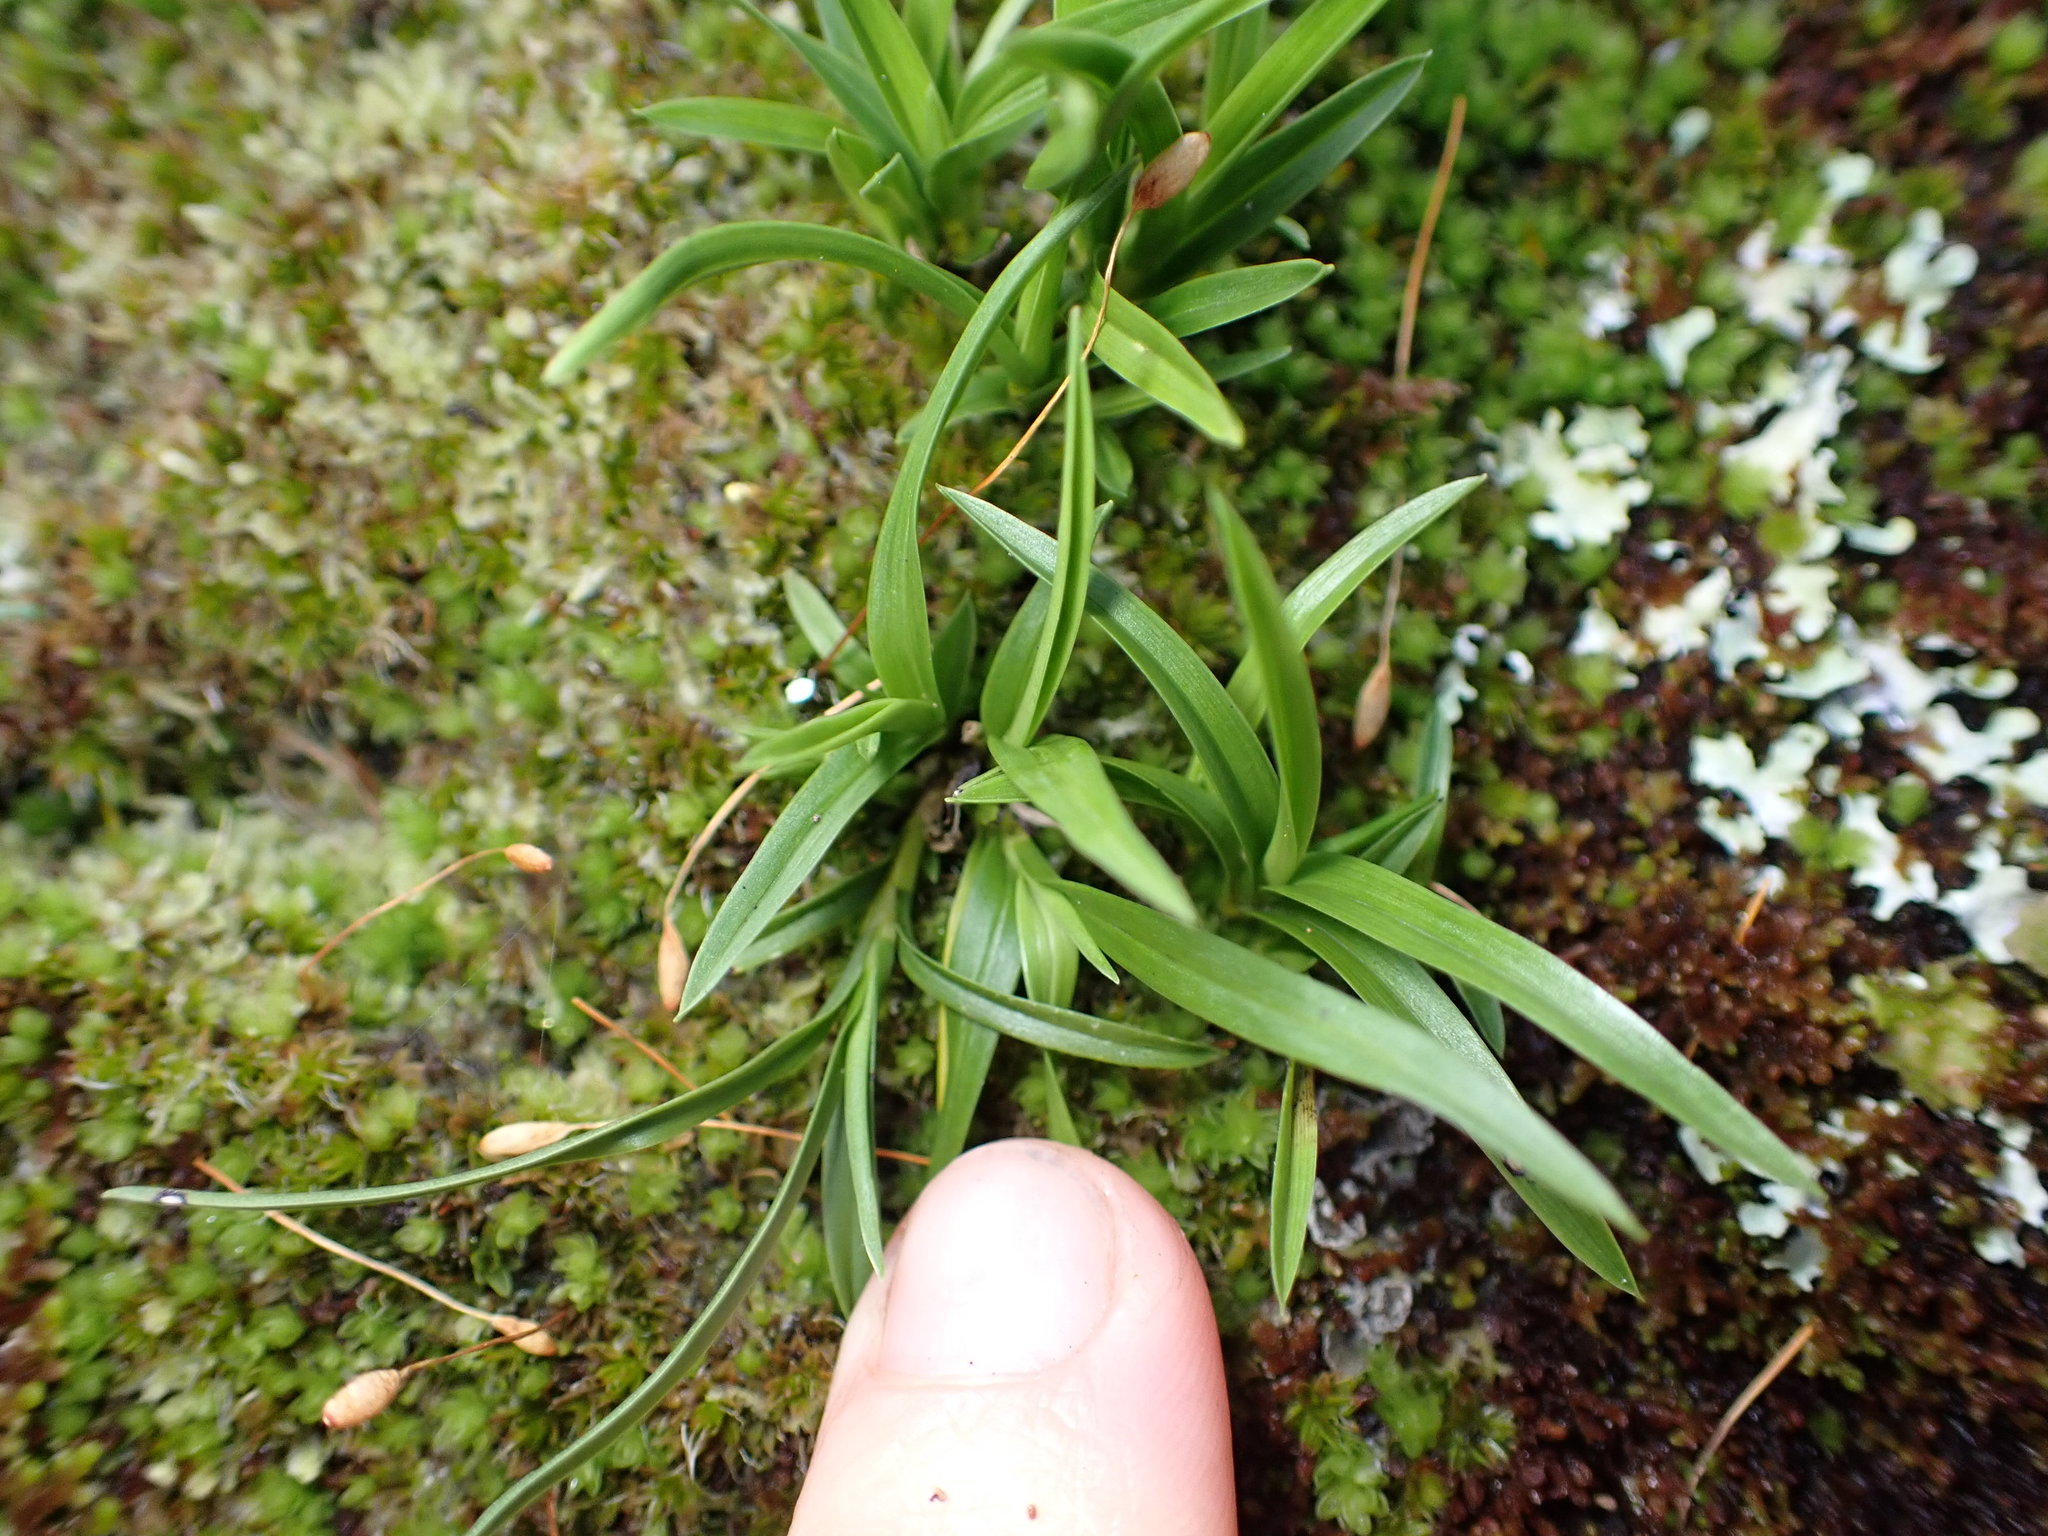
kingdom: Plantae
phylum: Tracheophyta
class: Liliopsida
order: Asparagales
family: Orchidaceae
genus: Earina
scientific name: Earina autumnalis
